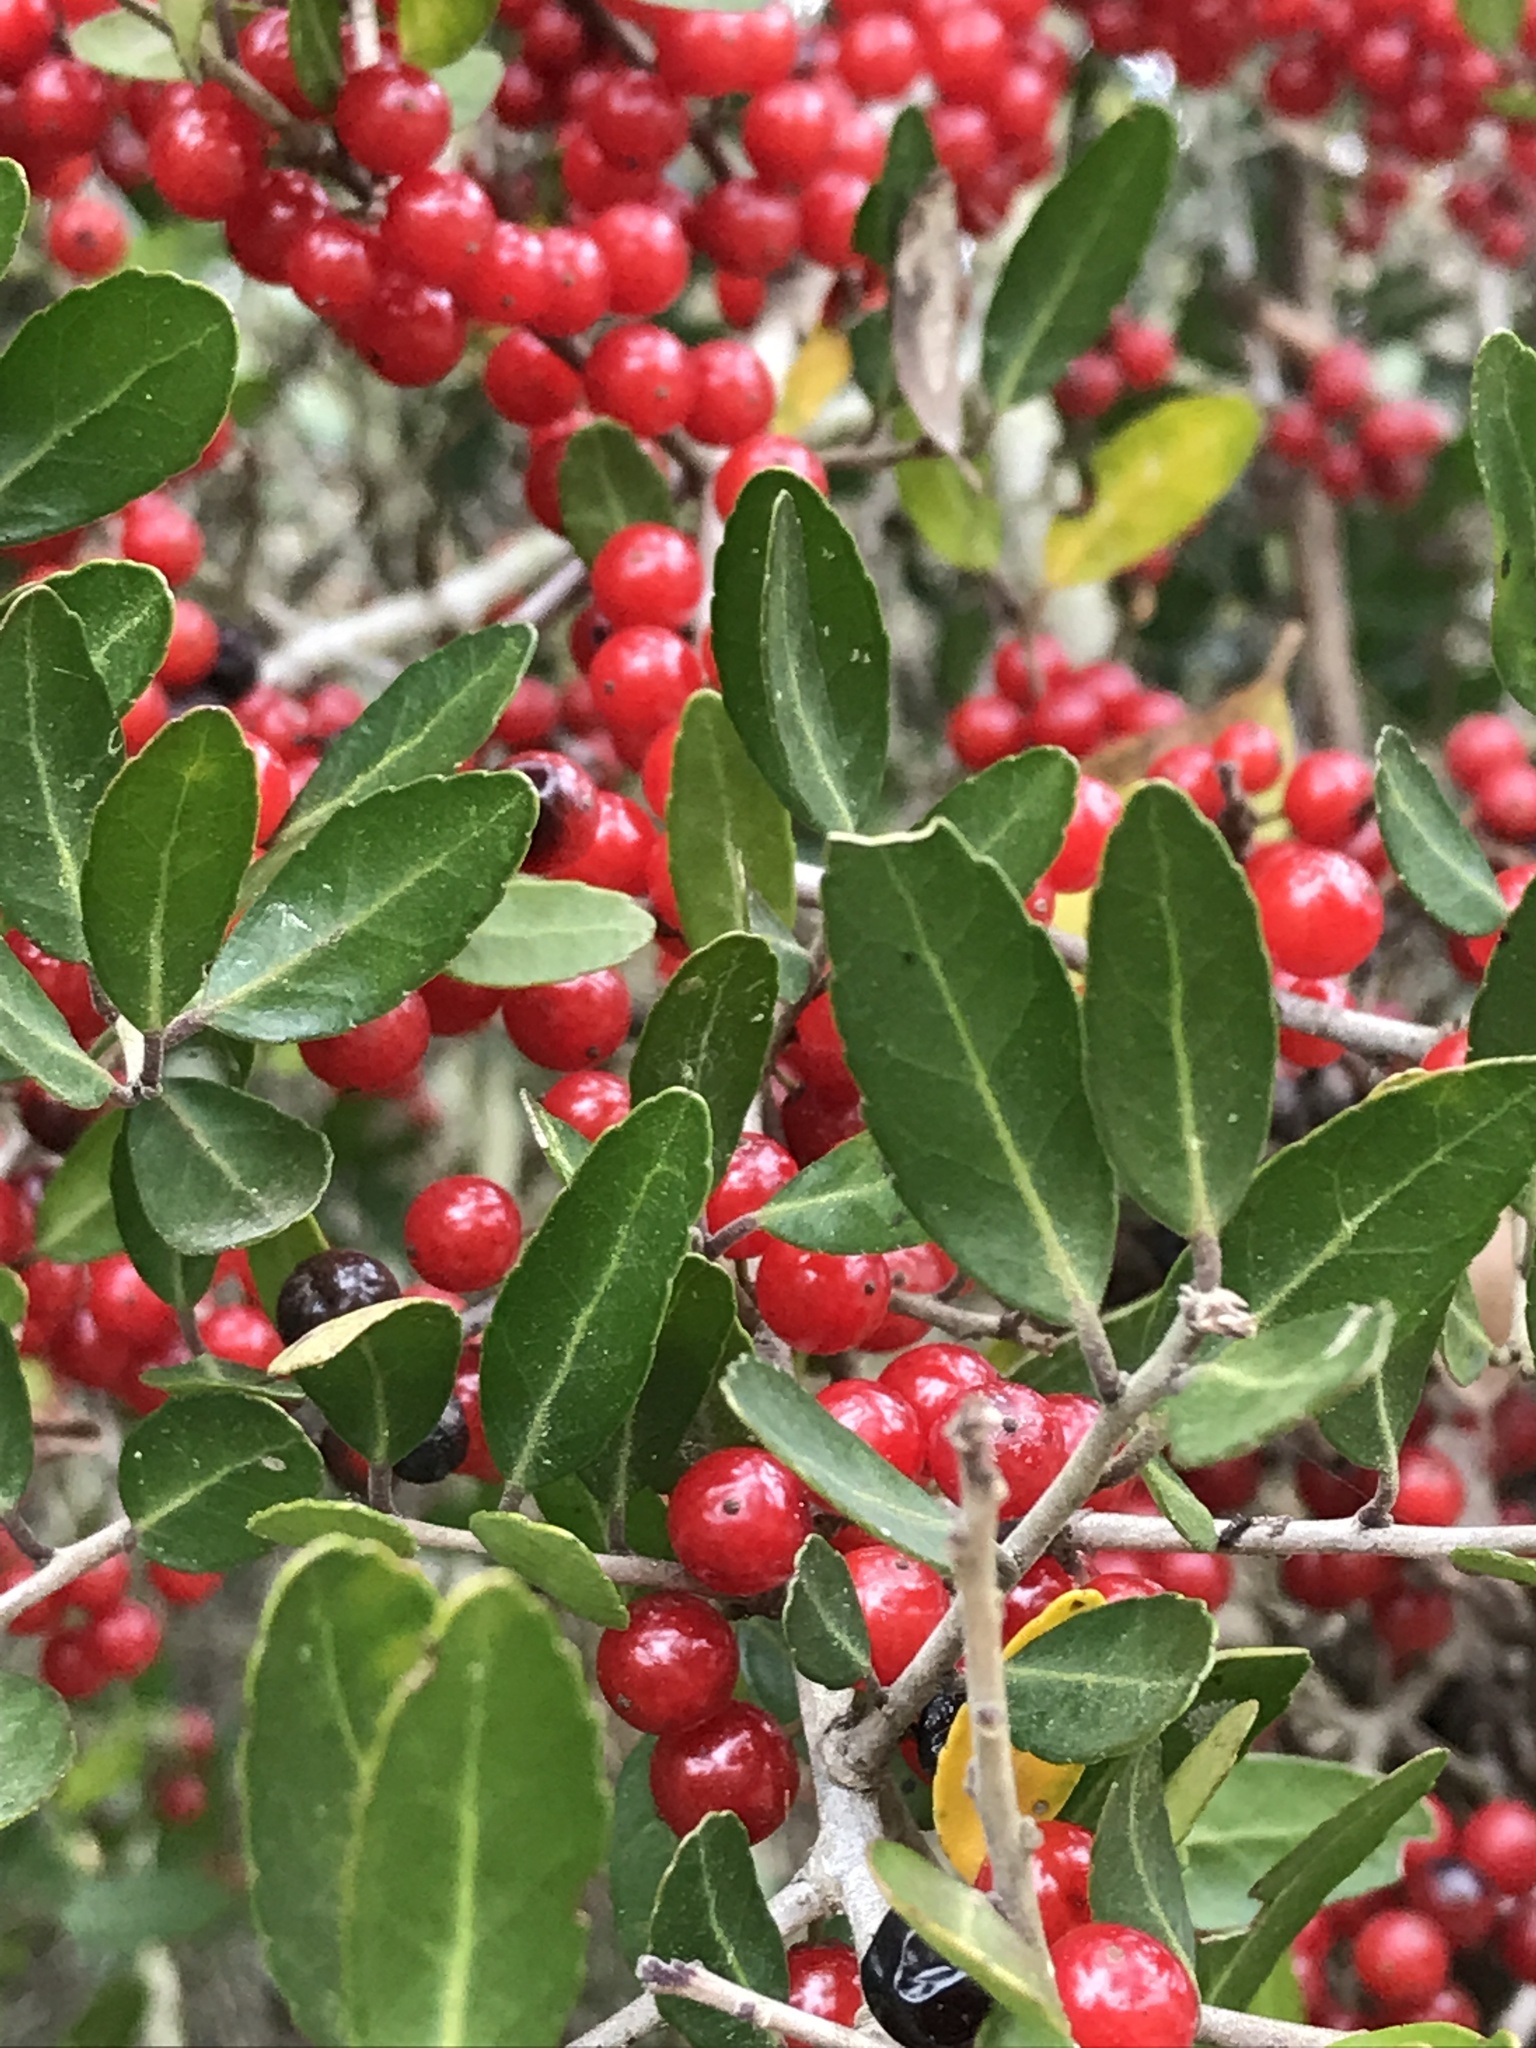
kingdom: Plantae
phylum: Tracheophyta
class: Magnoliopsida
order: Aquifoliales
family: Aquifoliaceae
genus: Ilex
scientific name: Ilex vomitoria
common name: Yaupon holly
